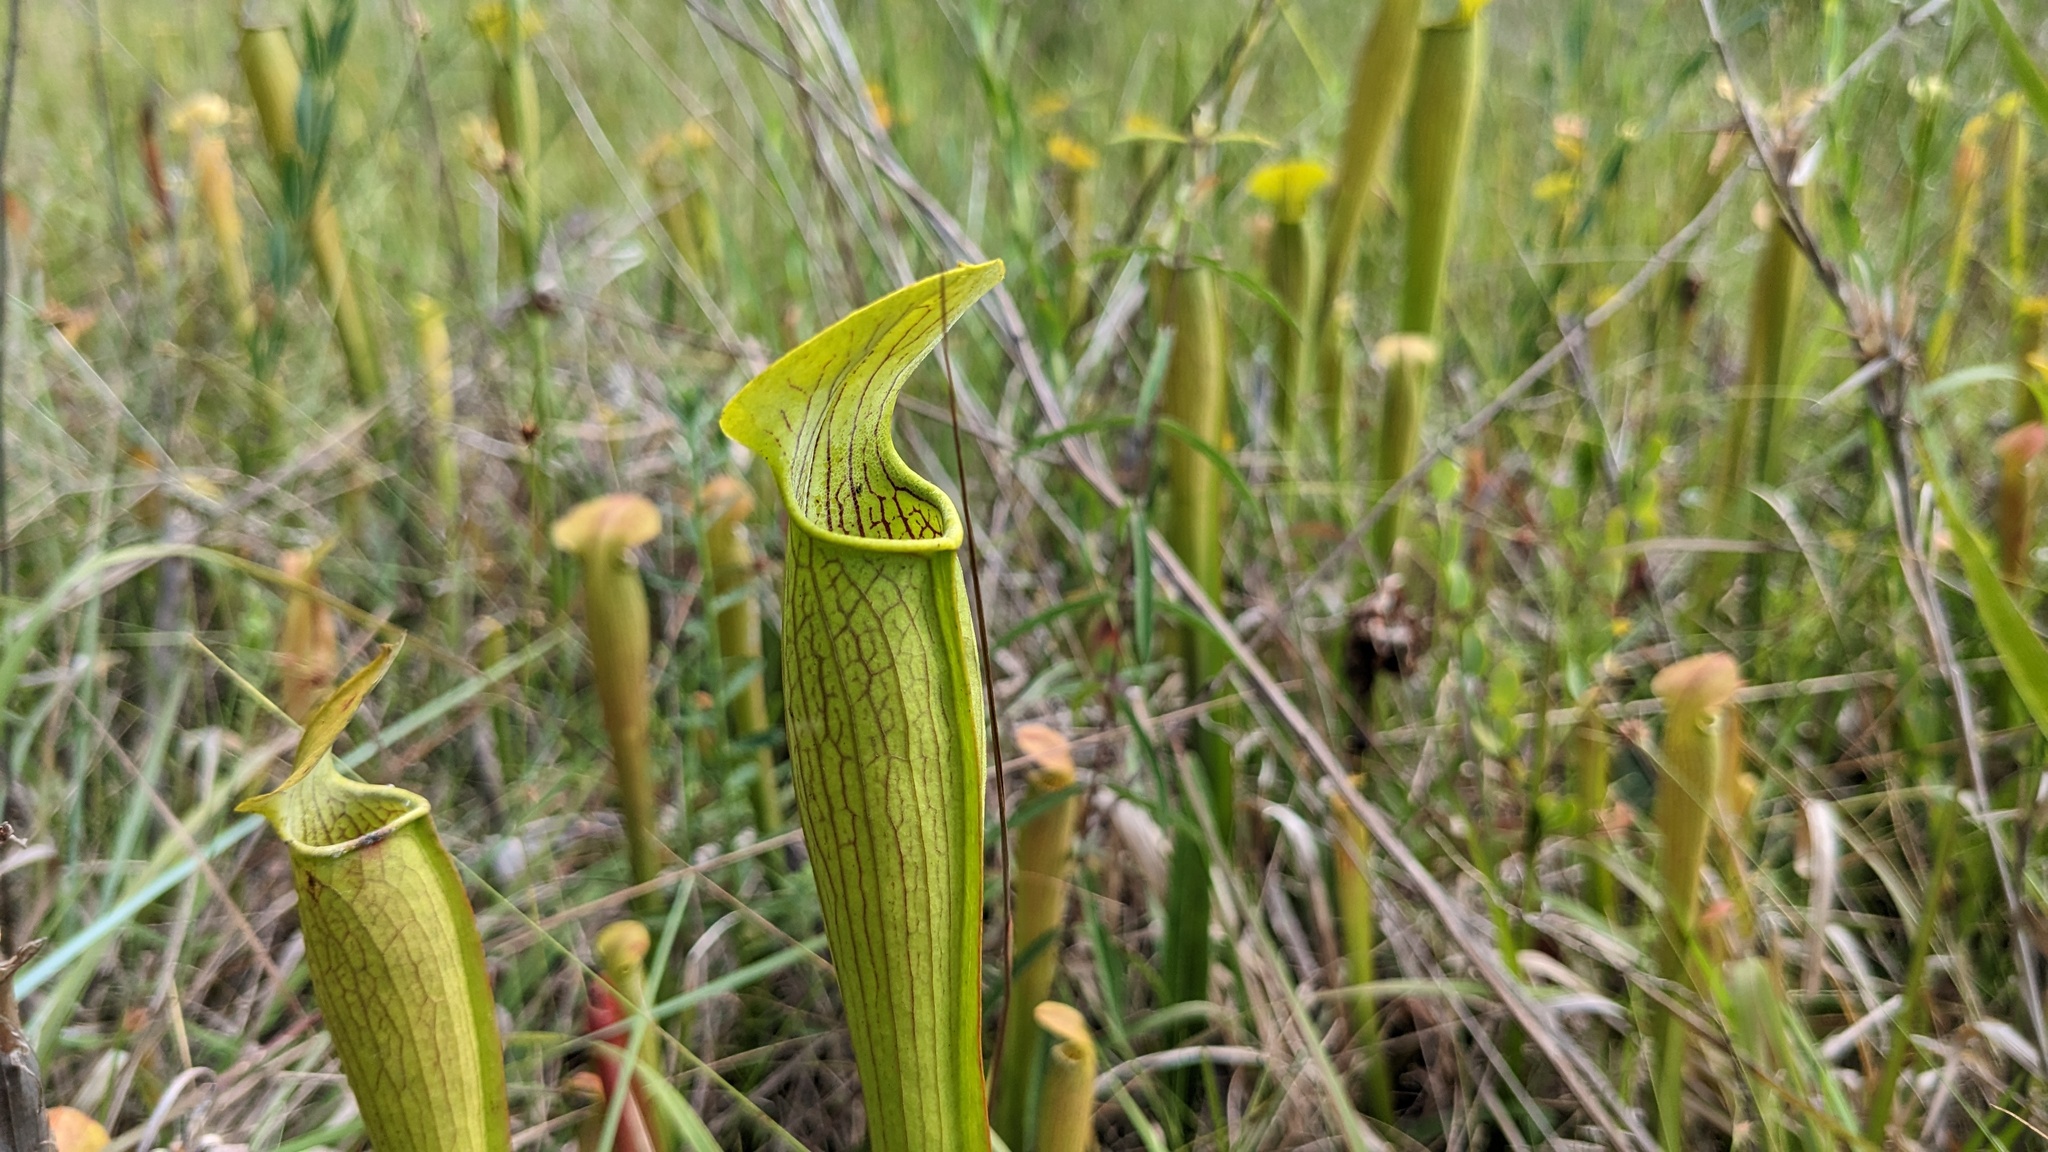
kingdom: Plantae
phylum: Tracheophyta
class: Magnoliopsida
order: Ericales
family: Sarraceniaceae
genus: Sarracenia
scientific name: Sarracenia alata
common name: Yellow trumpets
